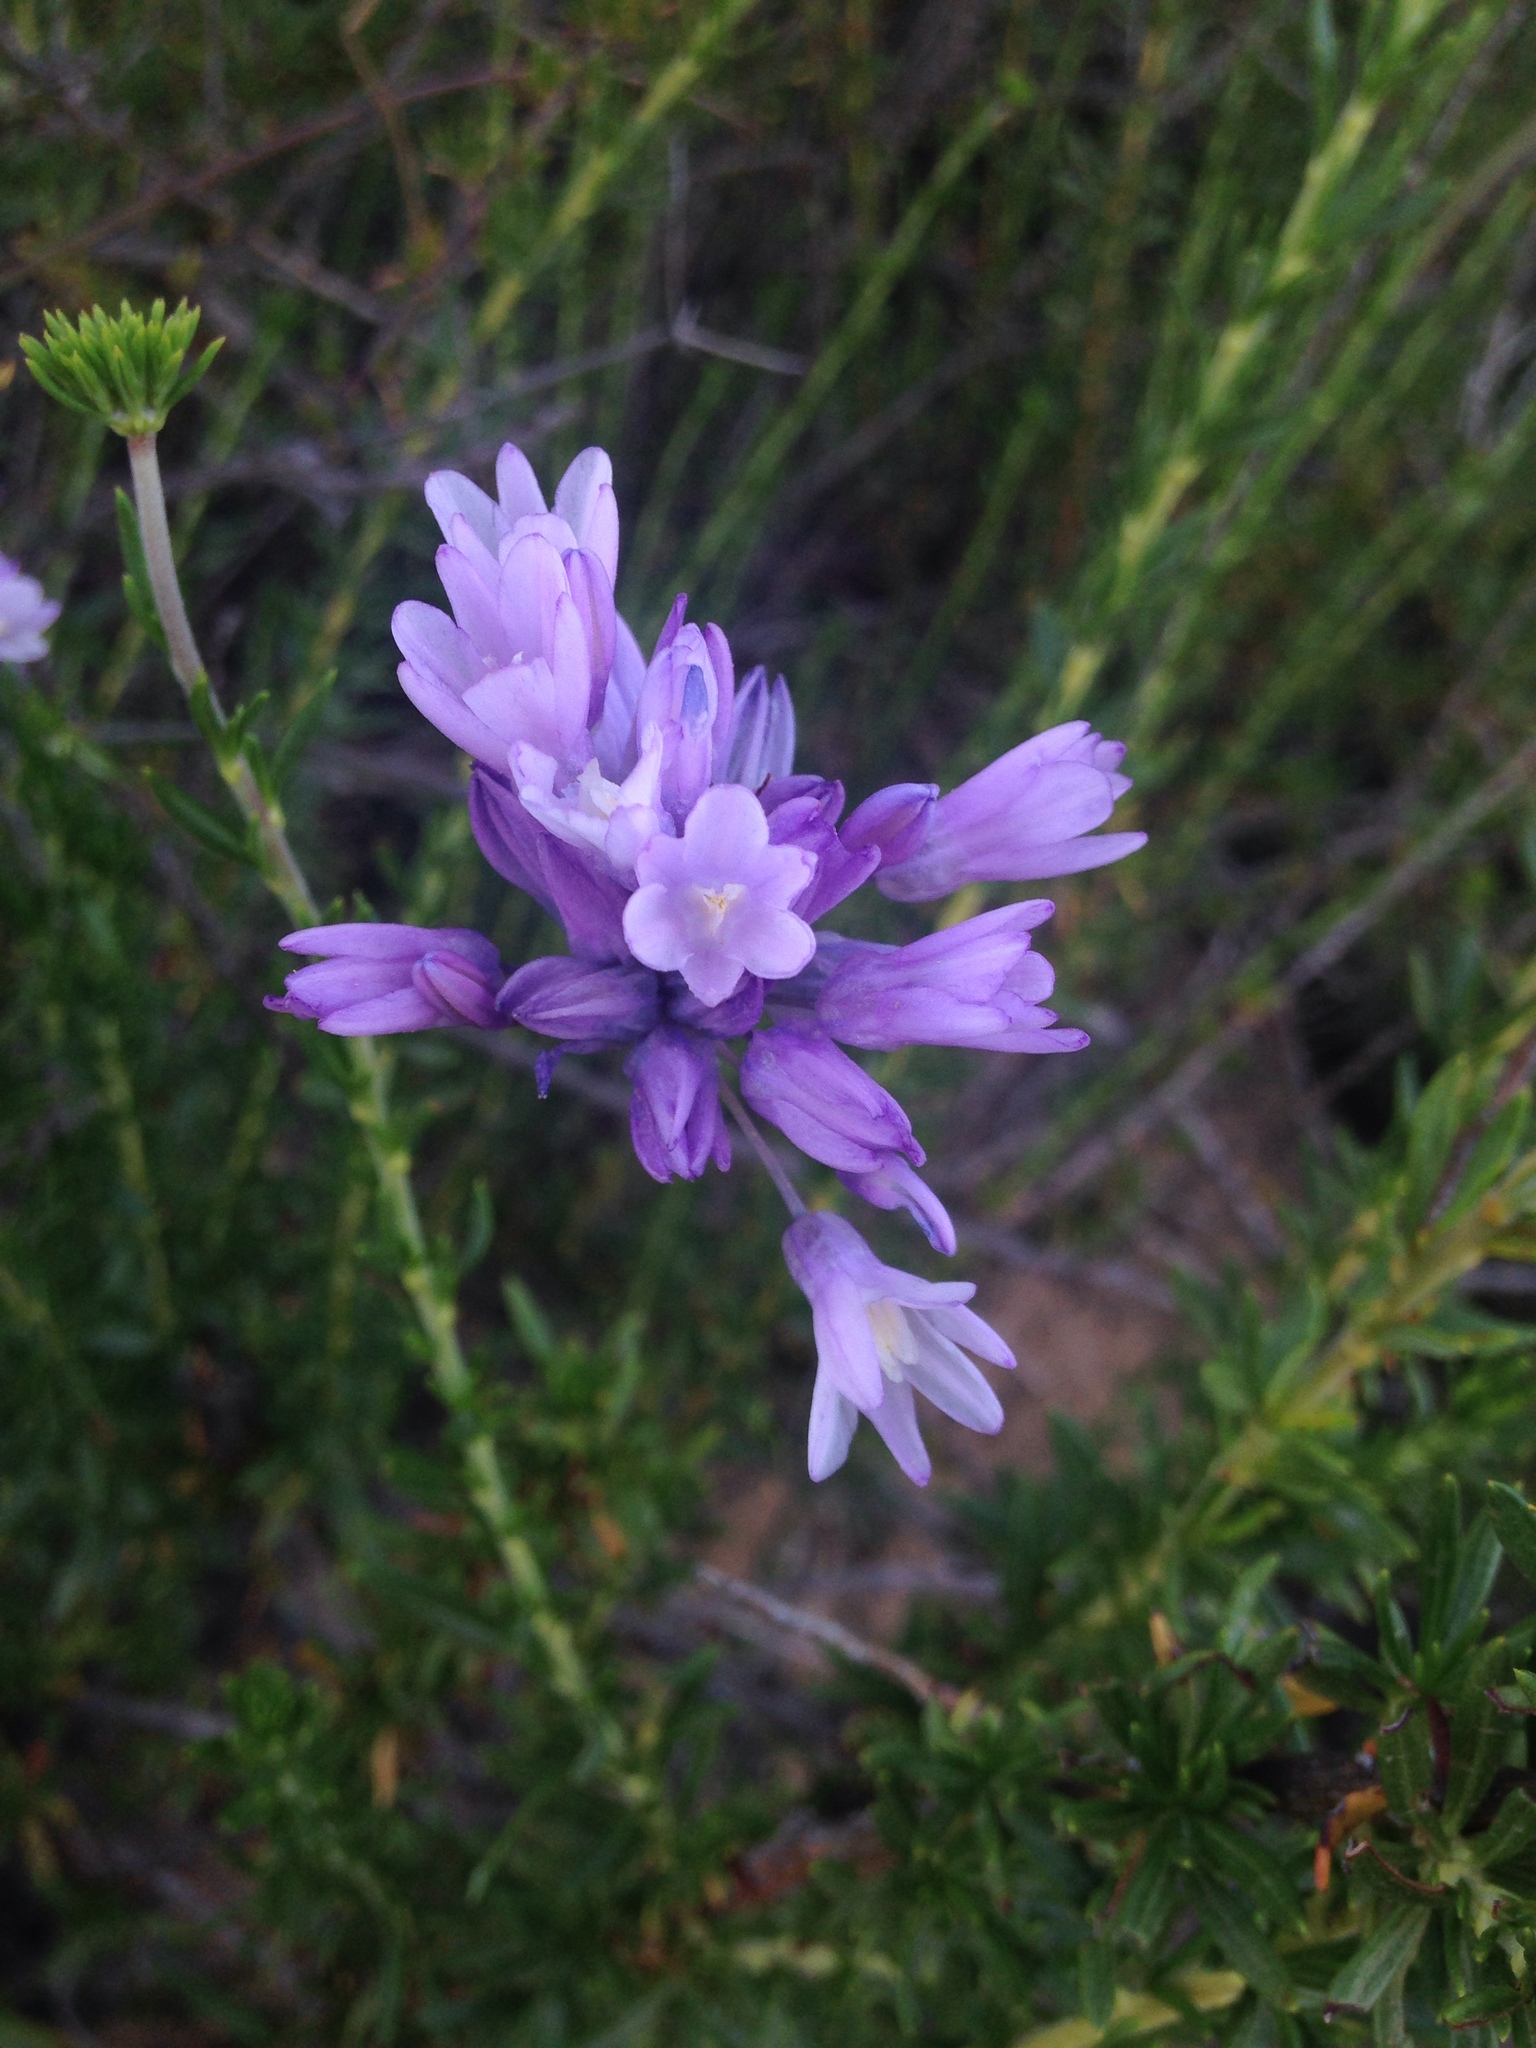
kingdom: Plantae
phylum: Tracheophyta
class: Liliopsida
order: Asparagales
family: Asparagaceae
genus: Dipterostemon
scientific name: Dipterostemon capitatus
